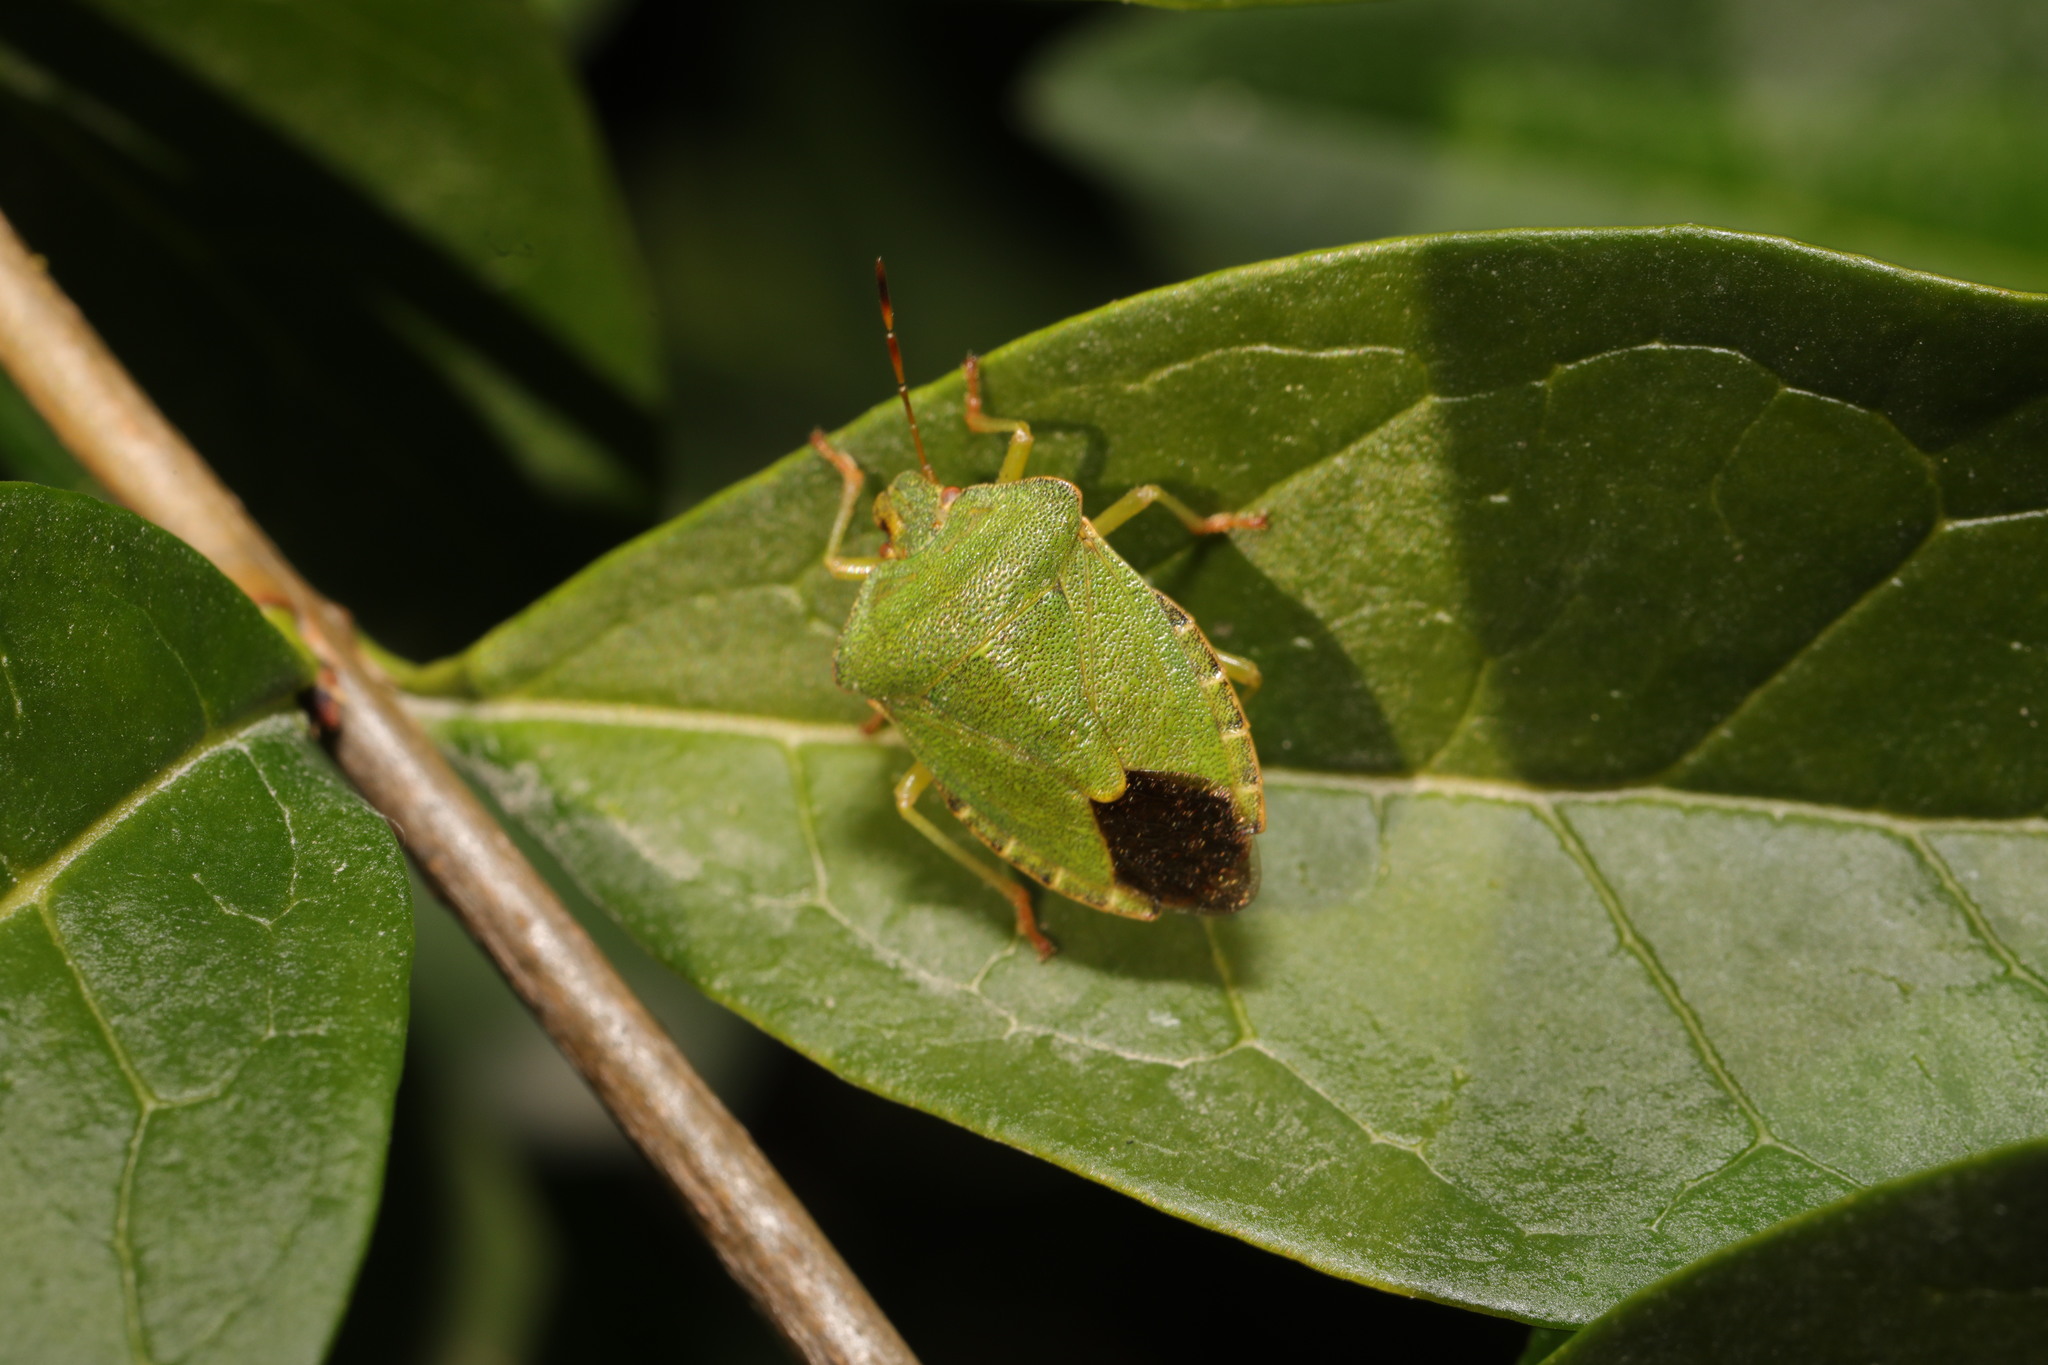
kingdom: Animalia
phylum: Arthropoda
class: Insecta
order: Hemiptera
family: Pentatomidae
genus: Palomena
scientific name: Palomena prasina
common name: Green shieldbug
